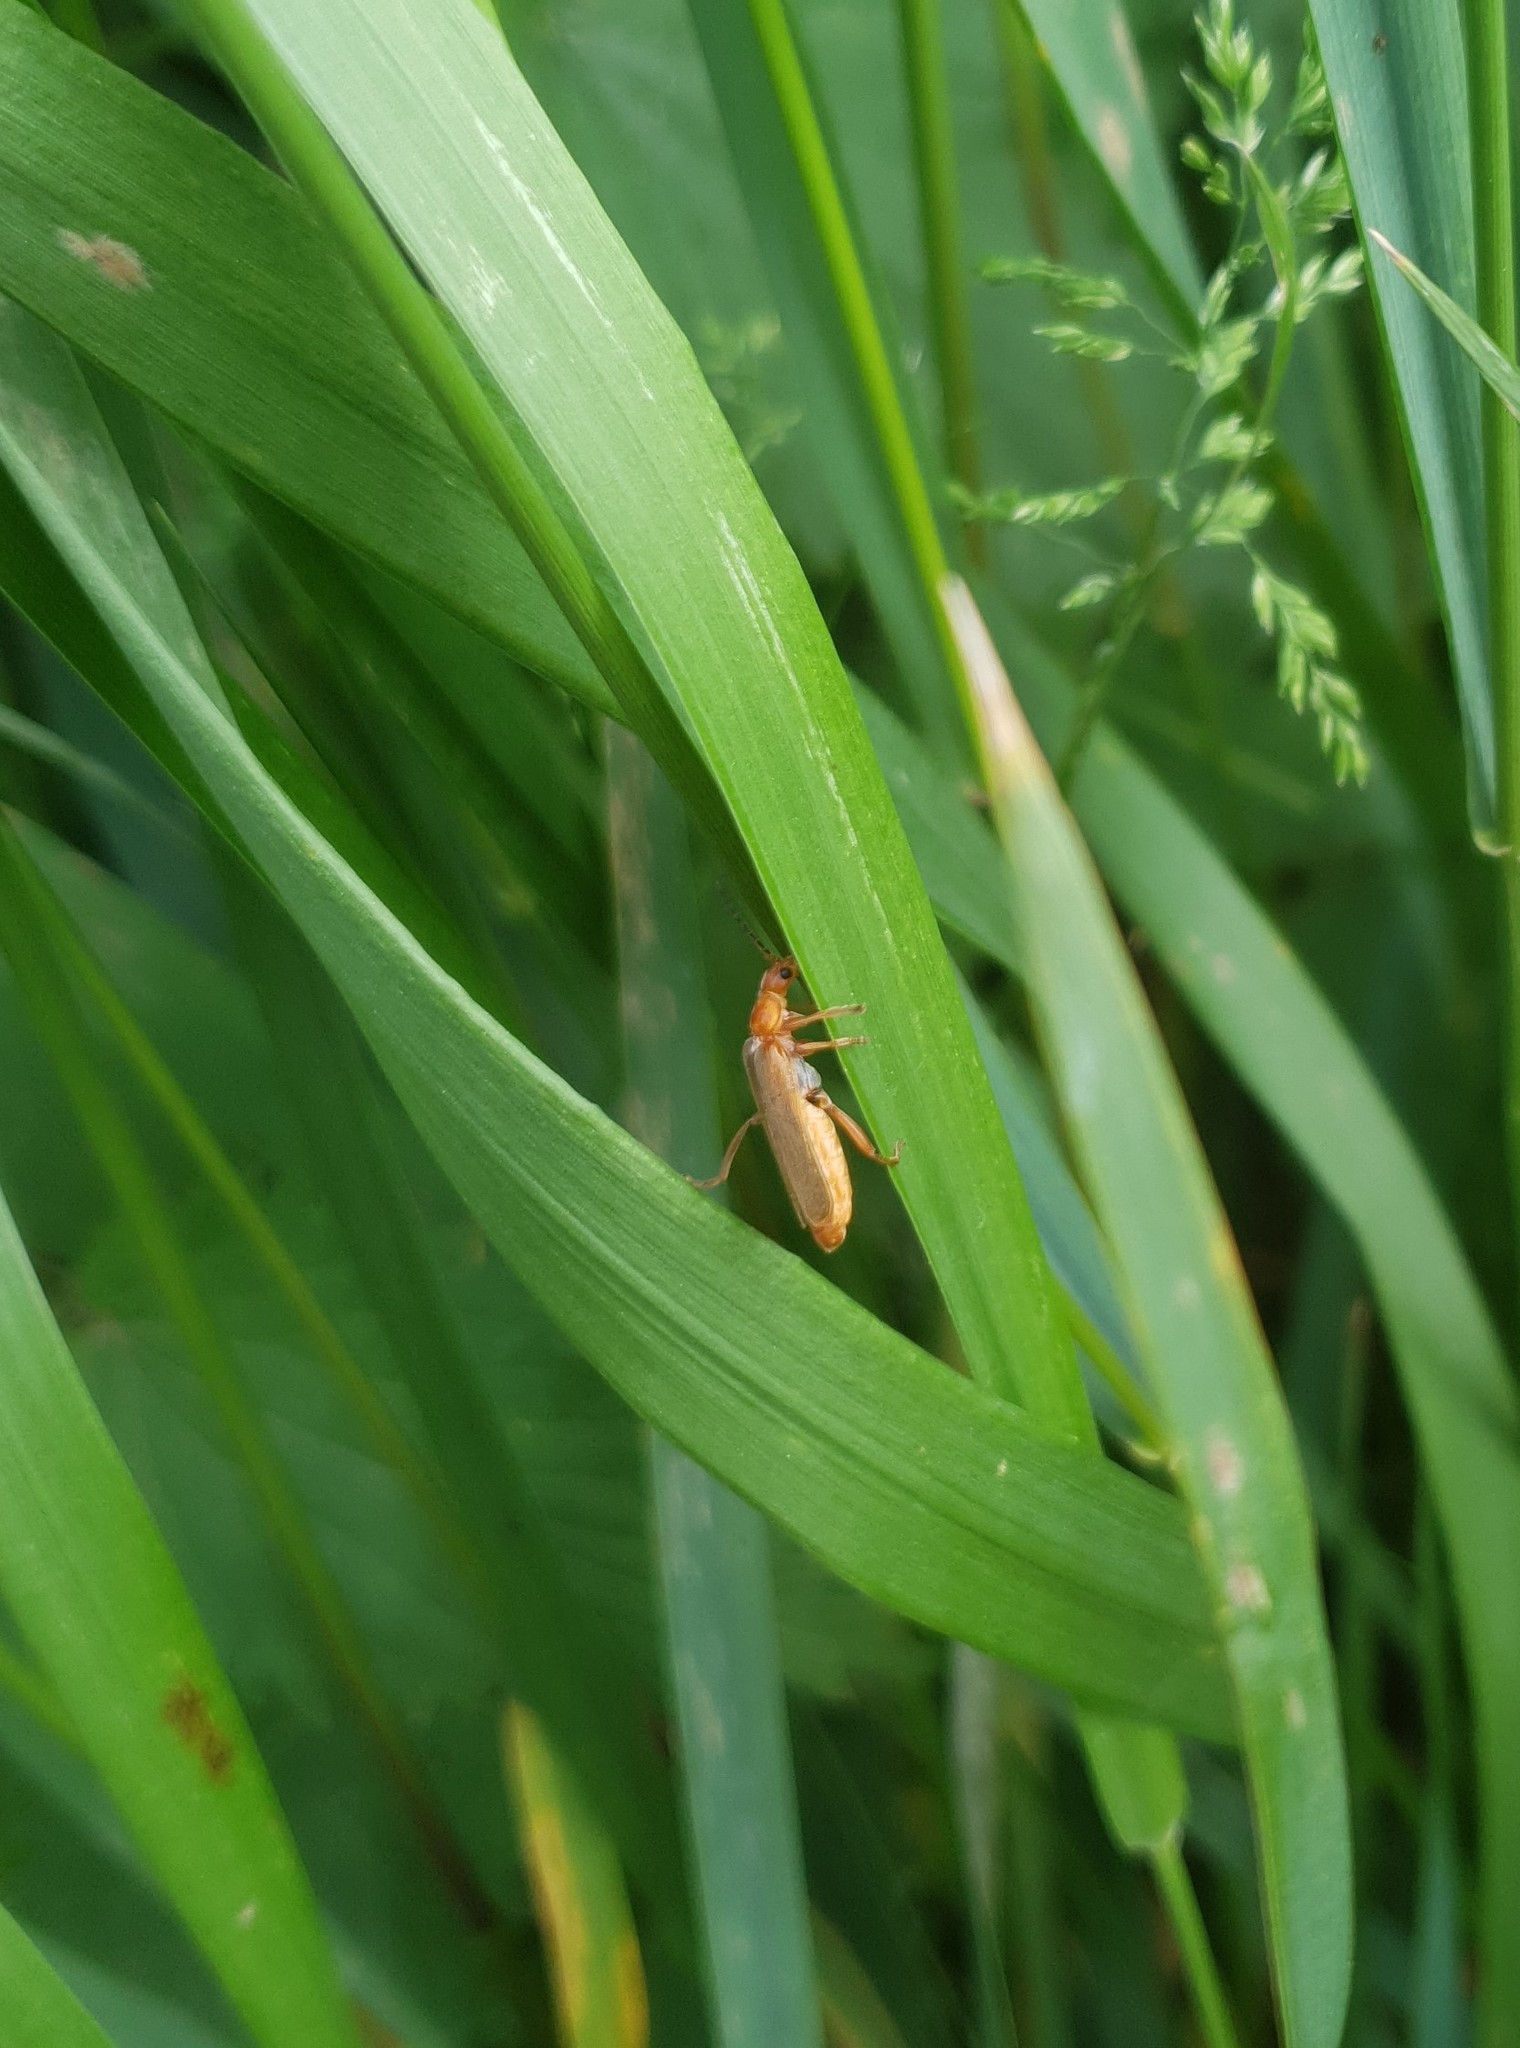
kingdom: Animalia
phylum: Arthropoda
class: Insecta
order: Coleoptera
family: Cantharidae
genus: Cantharis
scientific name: Cantharis rufa
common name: Red-spotted soldier beetle
